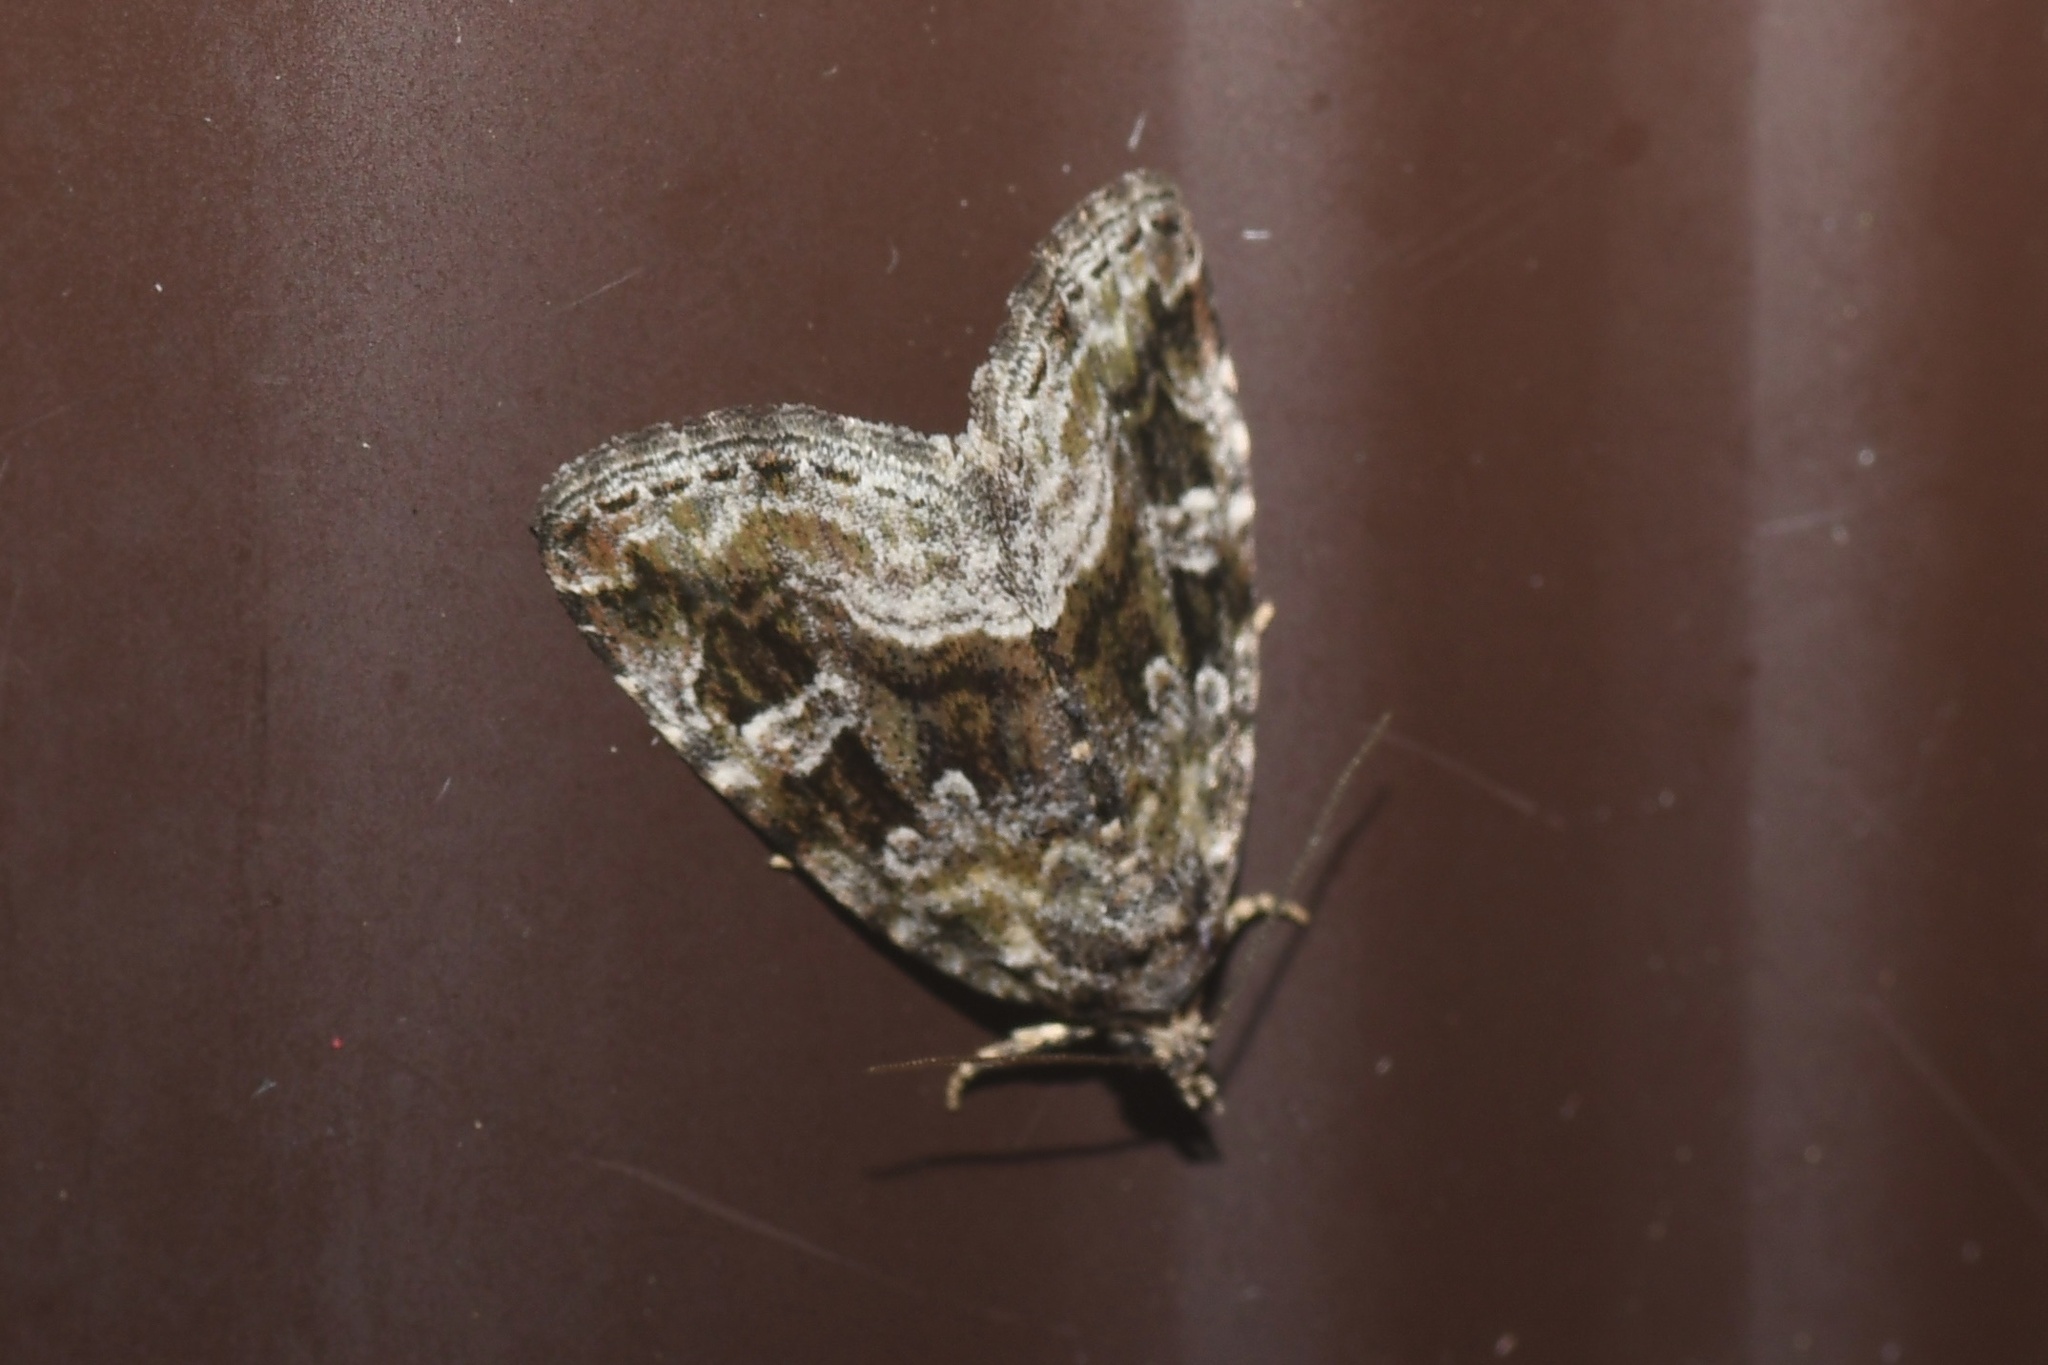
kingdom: Animalia
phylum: Arthropoda
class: Insecta
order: Lepidoptera
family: Noctuidae
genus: Protodeltote
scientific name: Protodeltote muscosula
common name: Large mossy glyph
